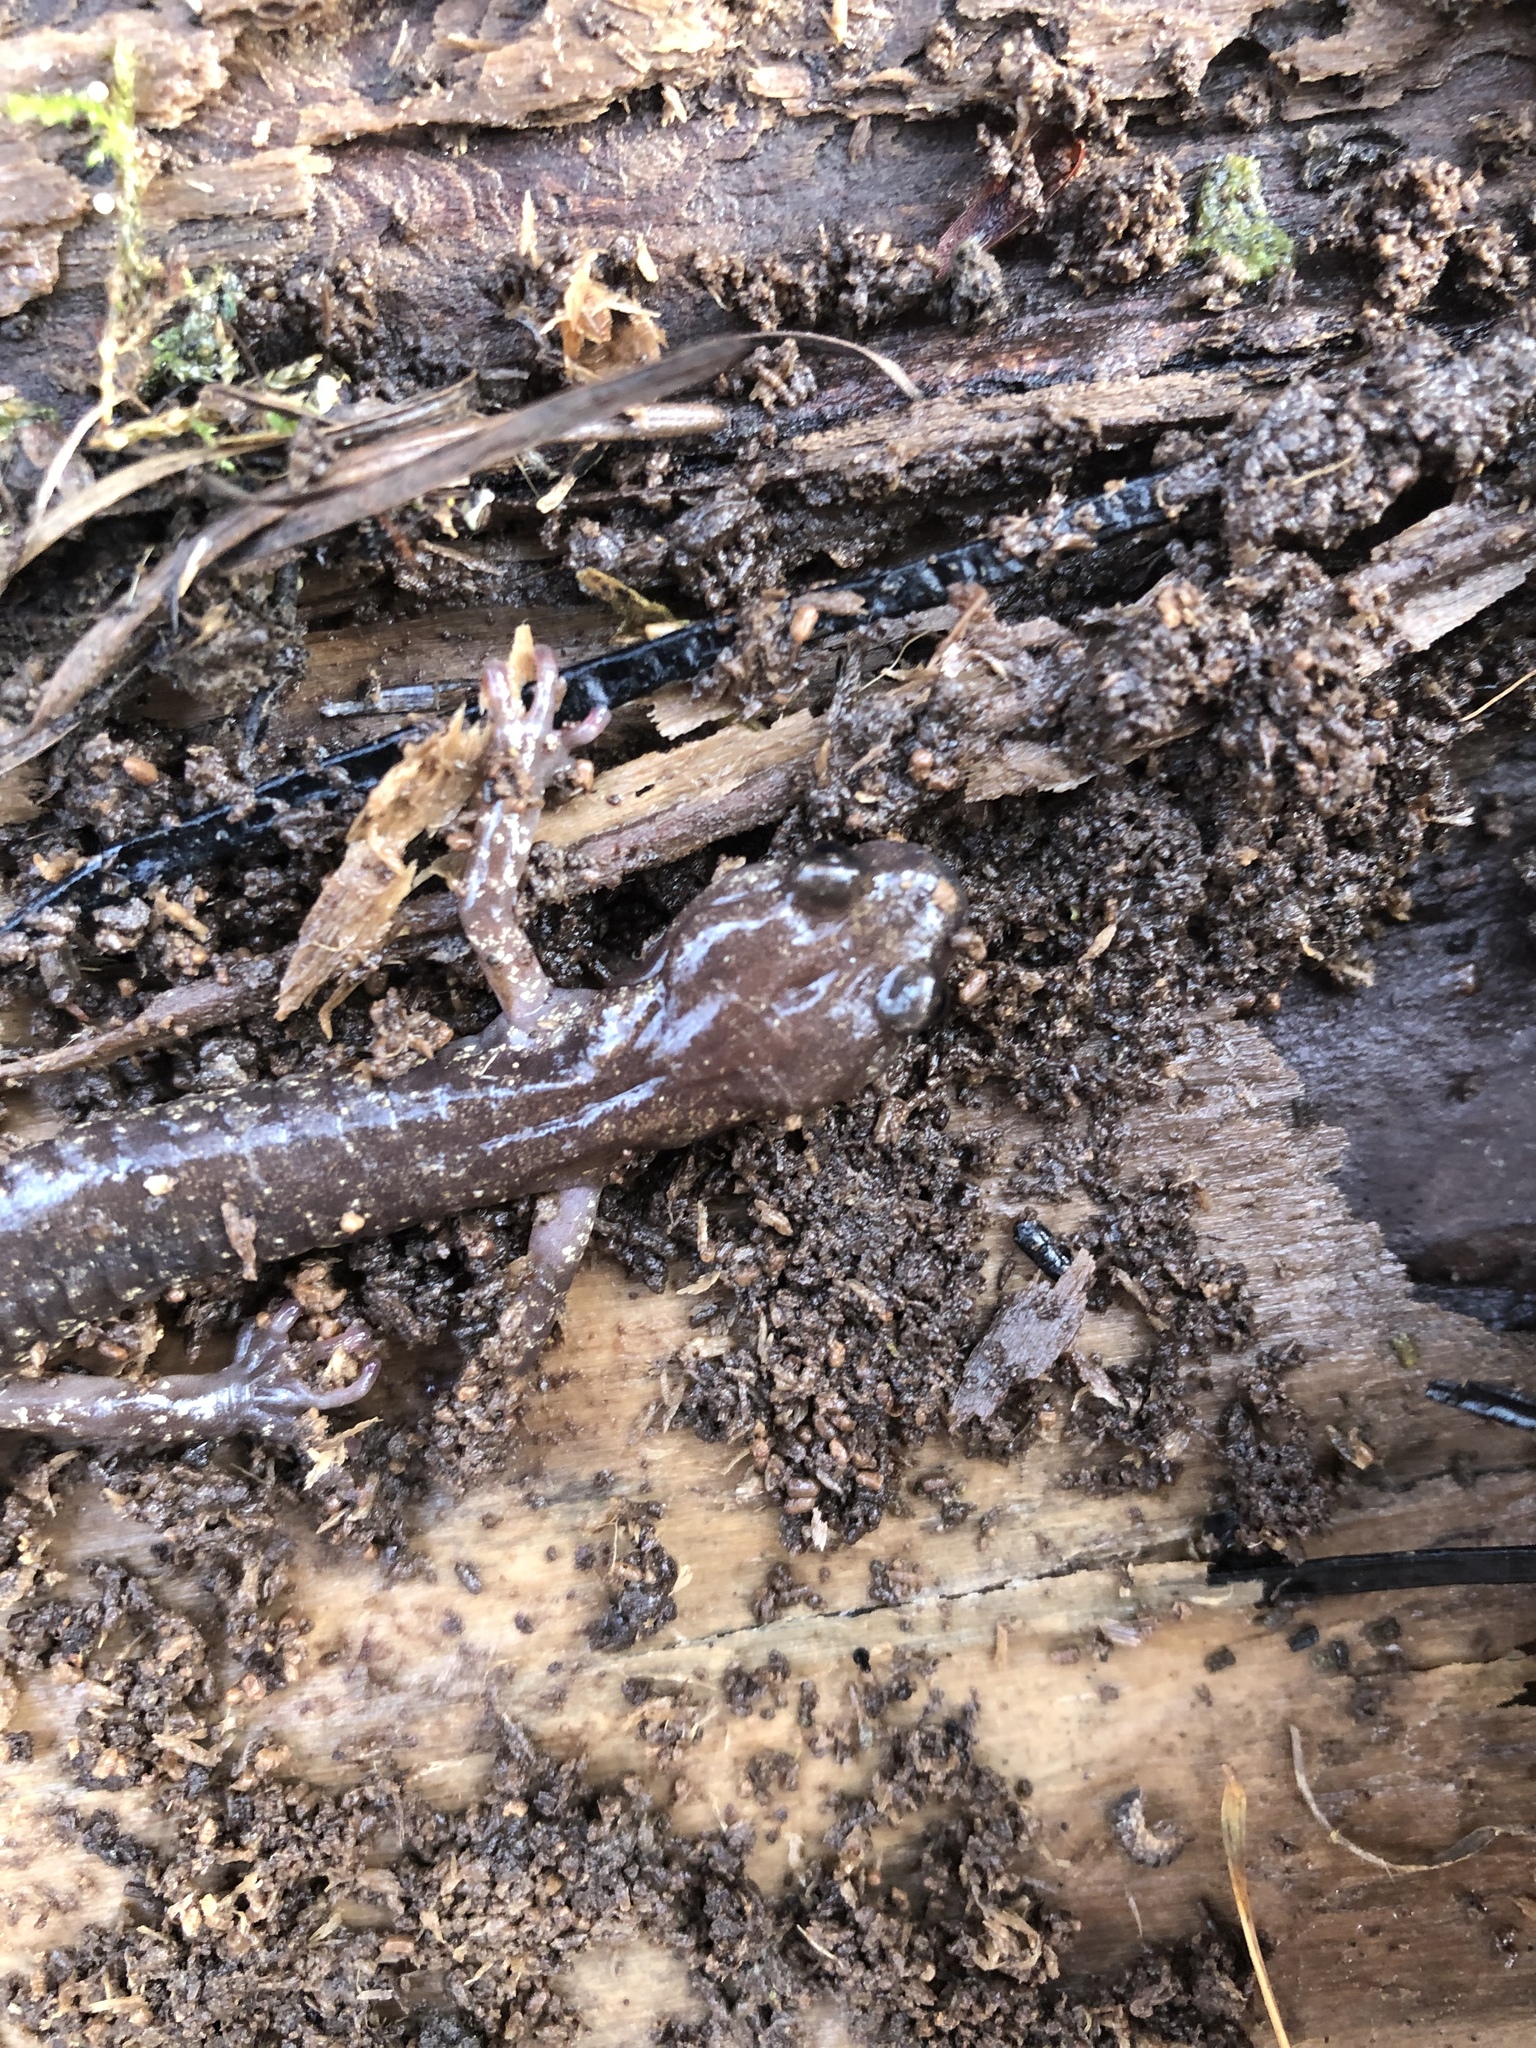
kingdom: Animalia
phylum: Chordata
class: Amphibia
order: Caudata
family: Plethodontidae
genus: Aneides
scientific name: Aneides ferreus
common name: Clouded salamander
